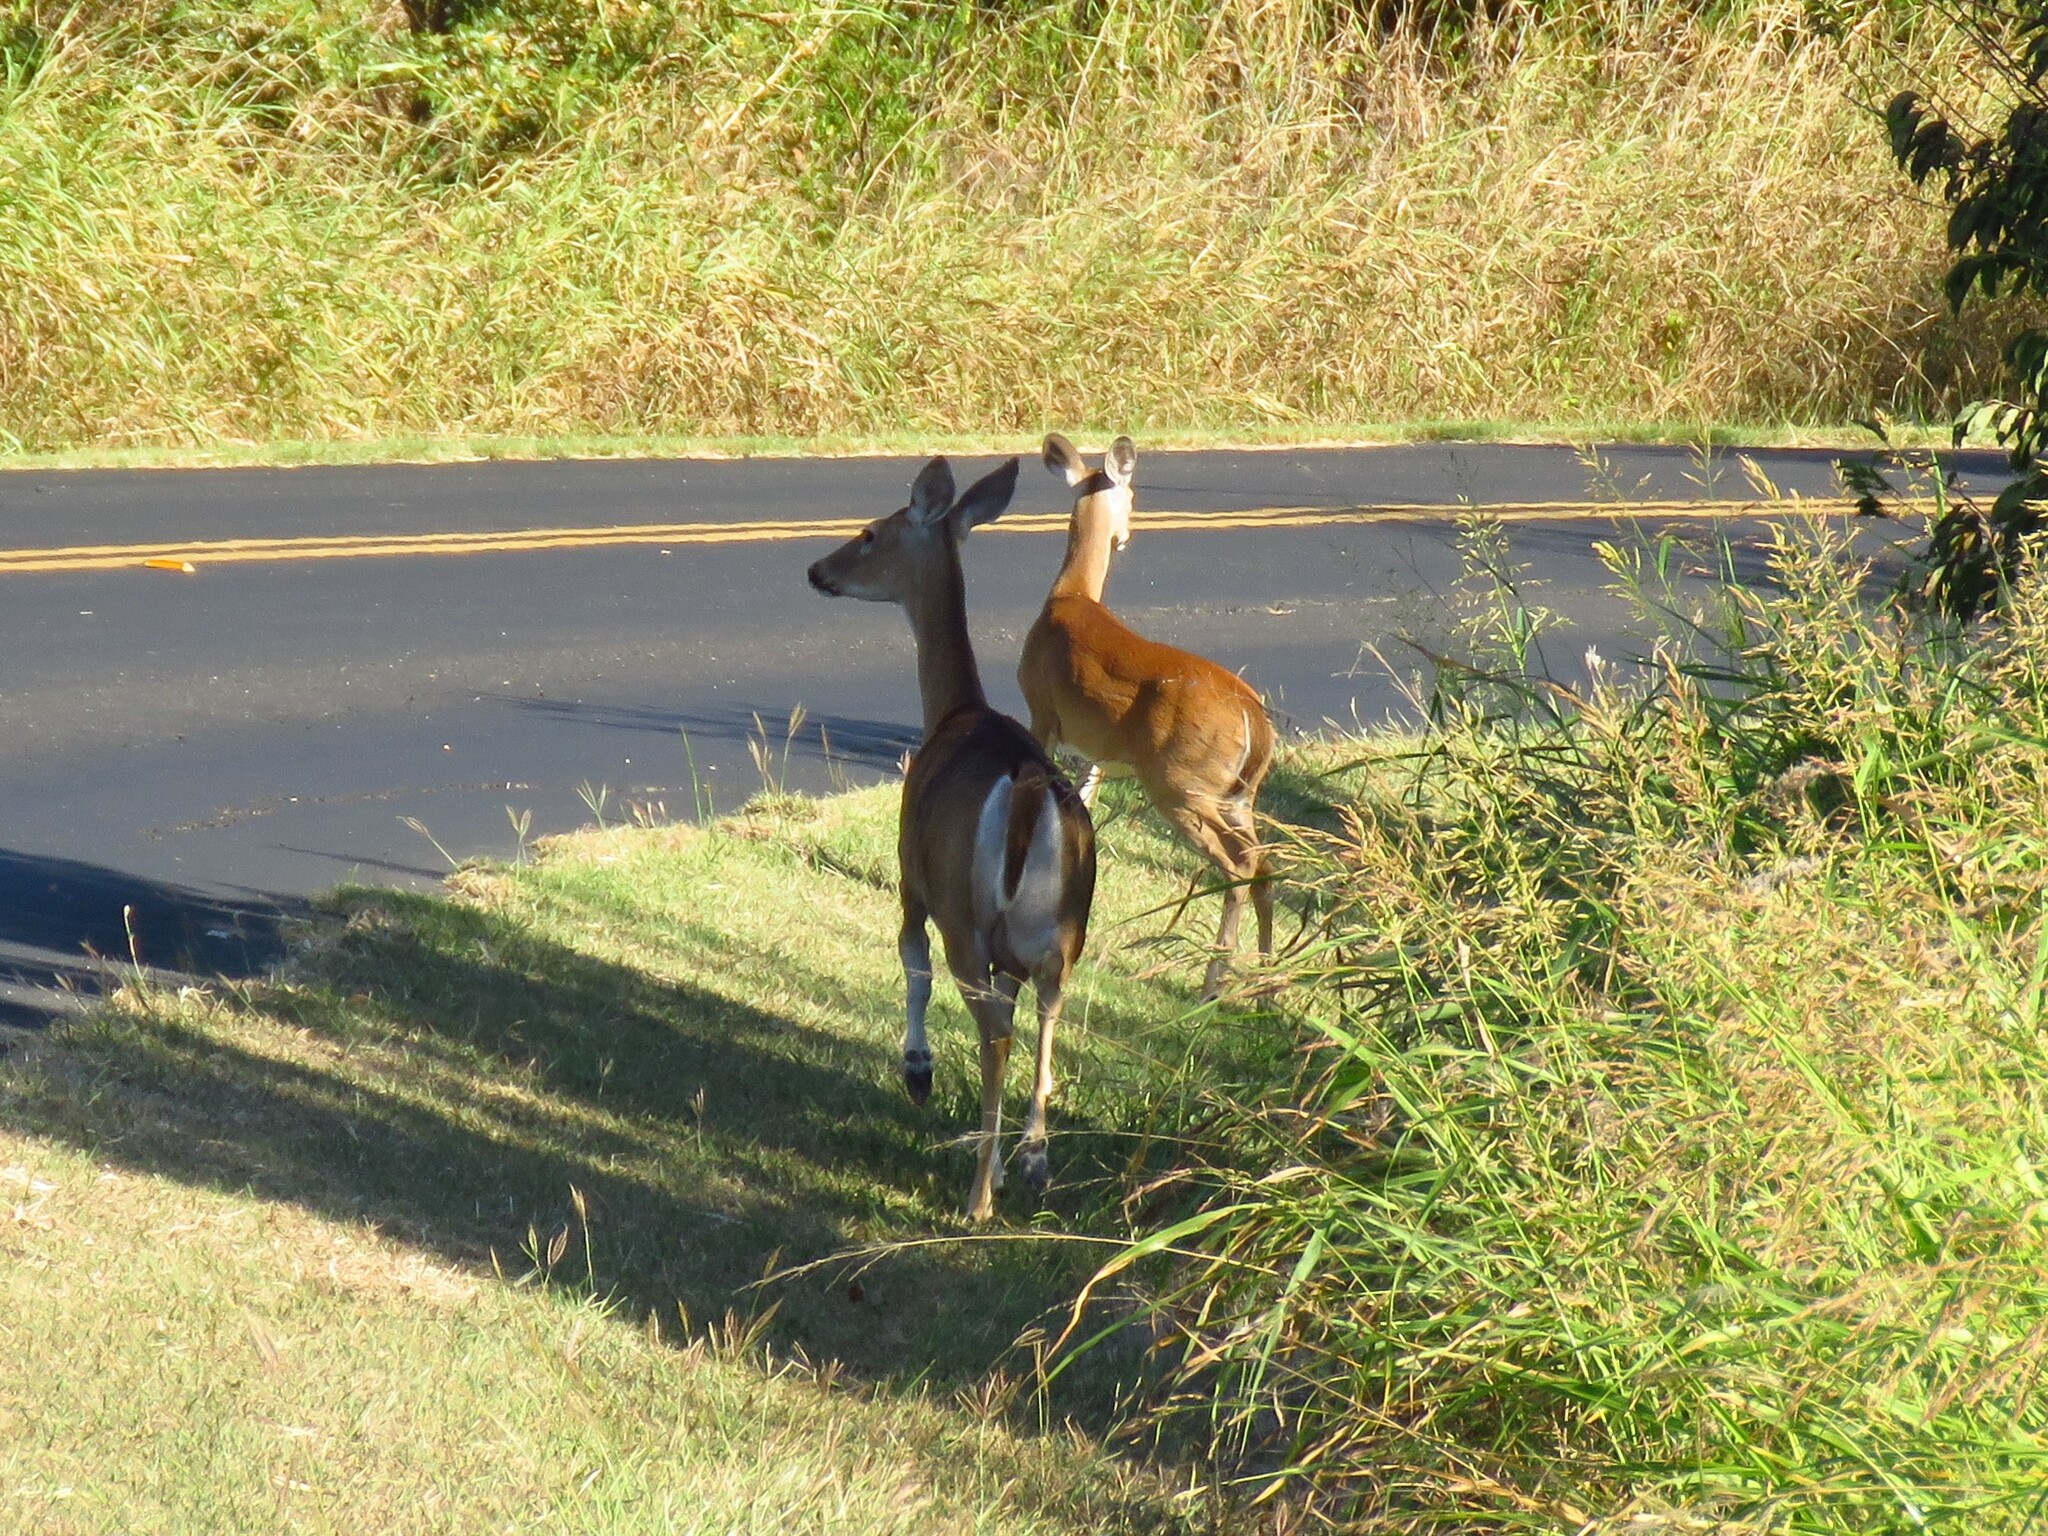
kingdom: Animalia
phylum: Chordata
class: Mammalia
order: Artiodactyla
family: Cervidae
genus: Odocoileus
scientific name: Odocoileus virginianus
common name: White-tailed deer
